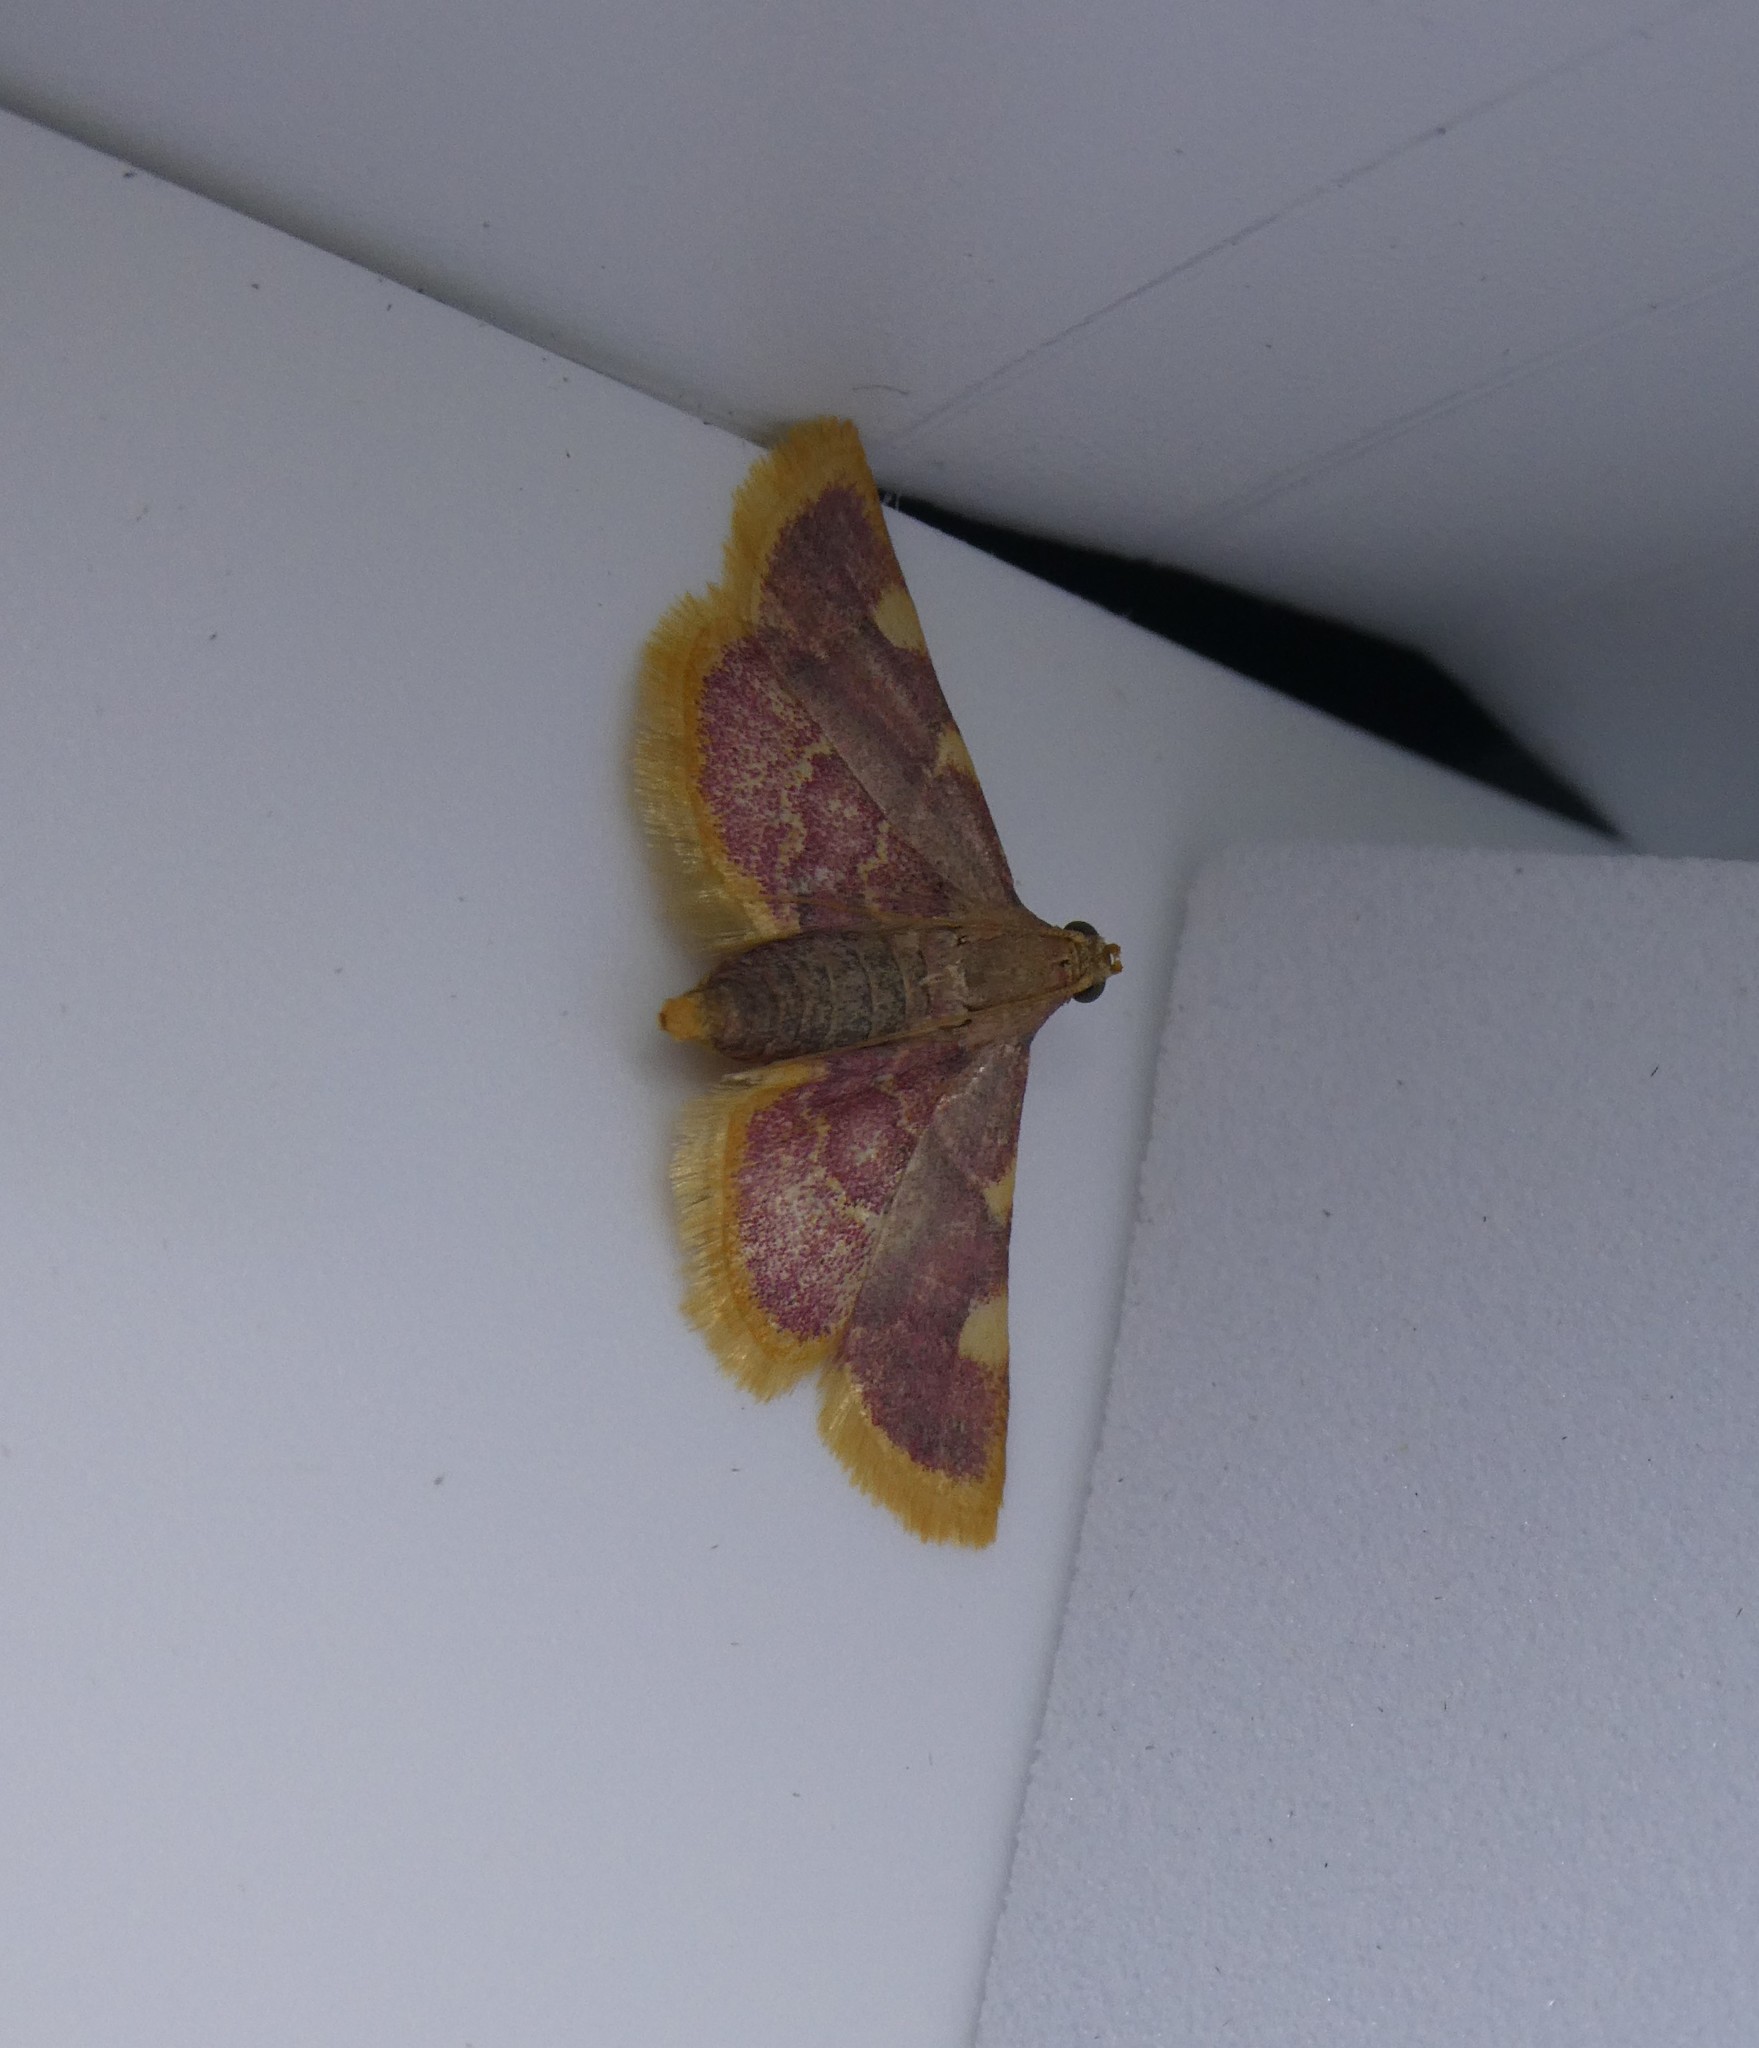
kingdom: Animalia
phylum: Arthropoda
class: Insecta
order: Lepidoptera
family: Pyralidae
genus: Hypsopygia
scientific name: Hypsopygia costalis
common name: Gold triangle
